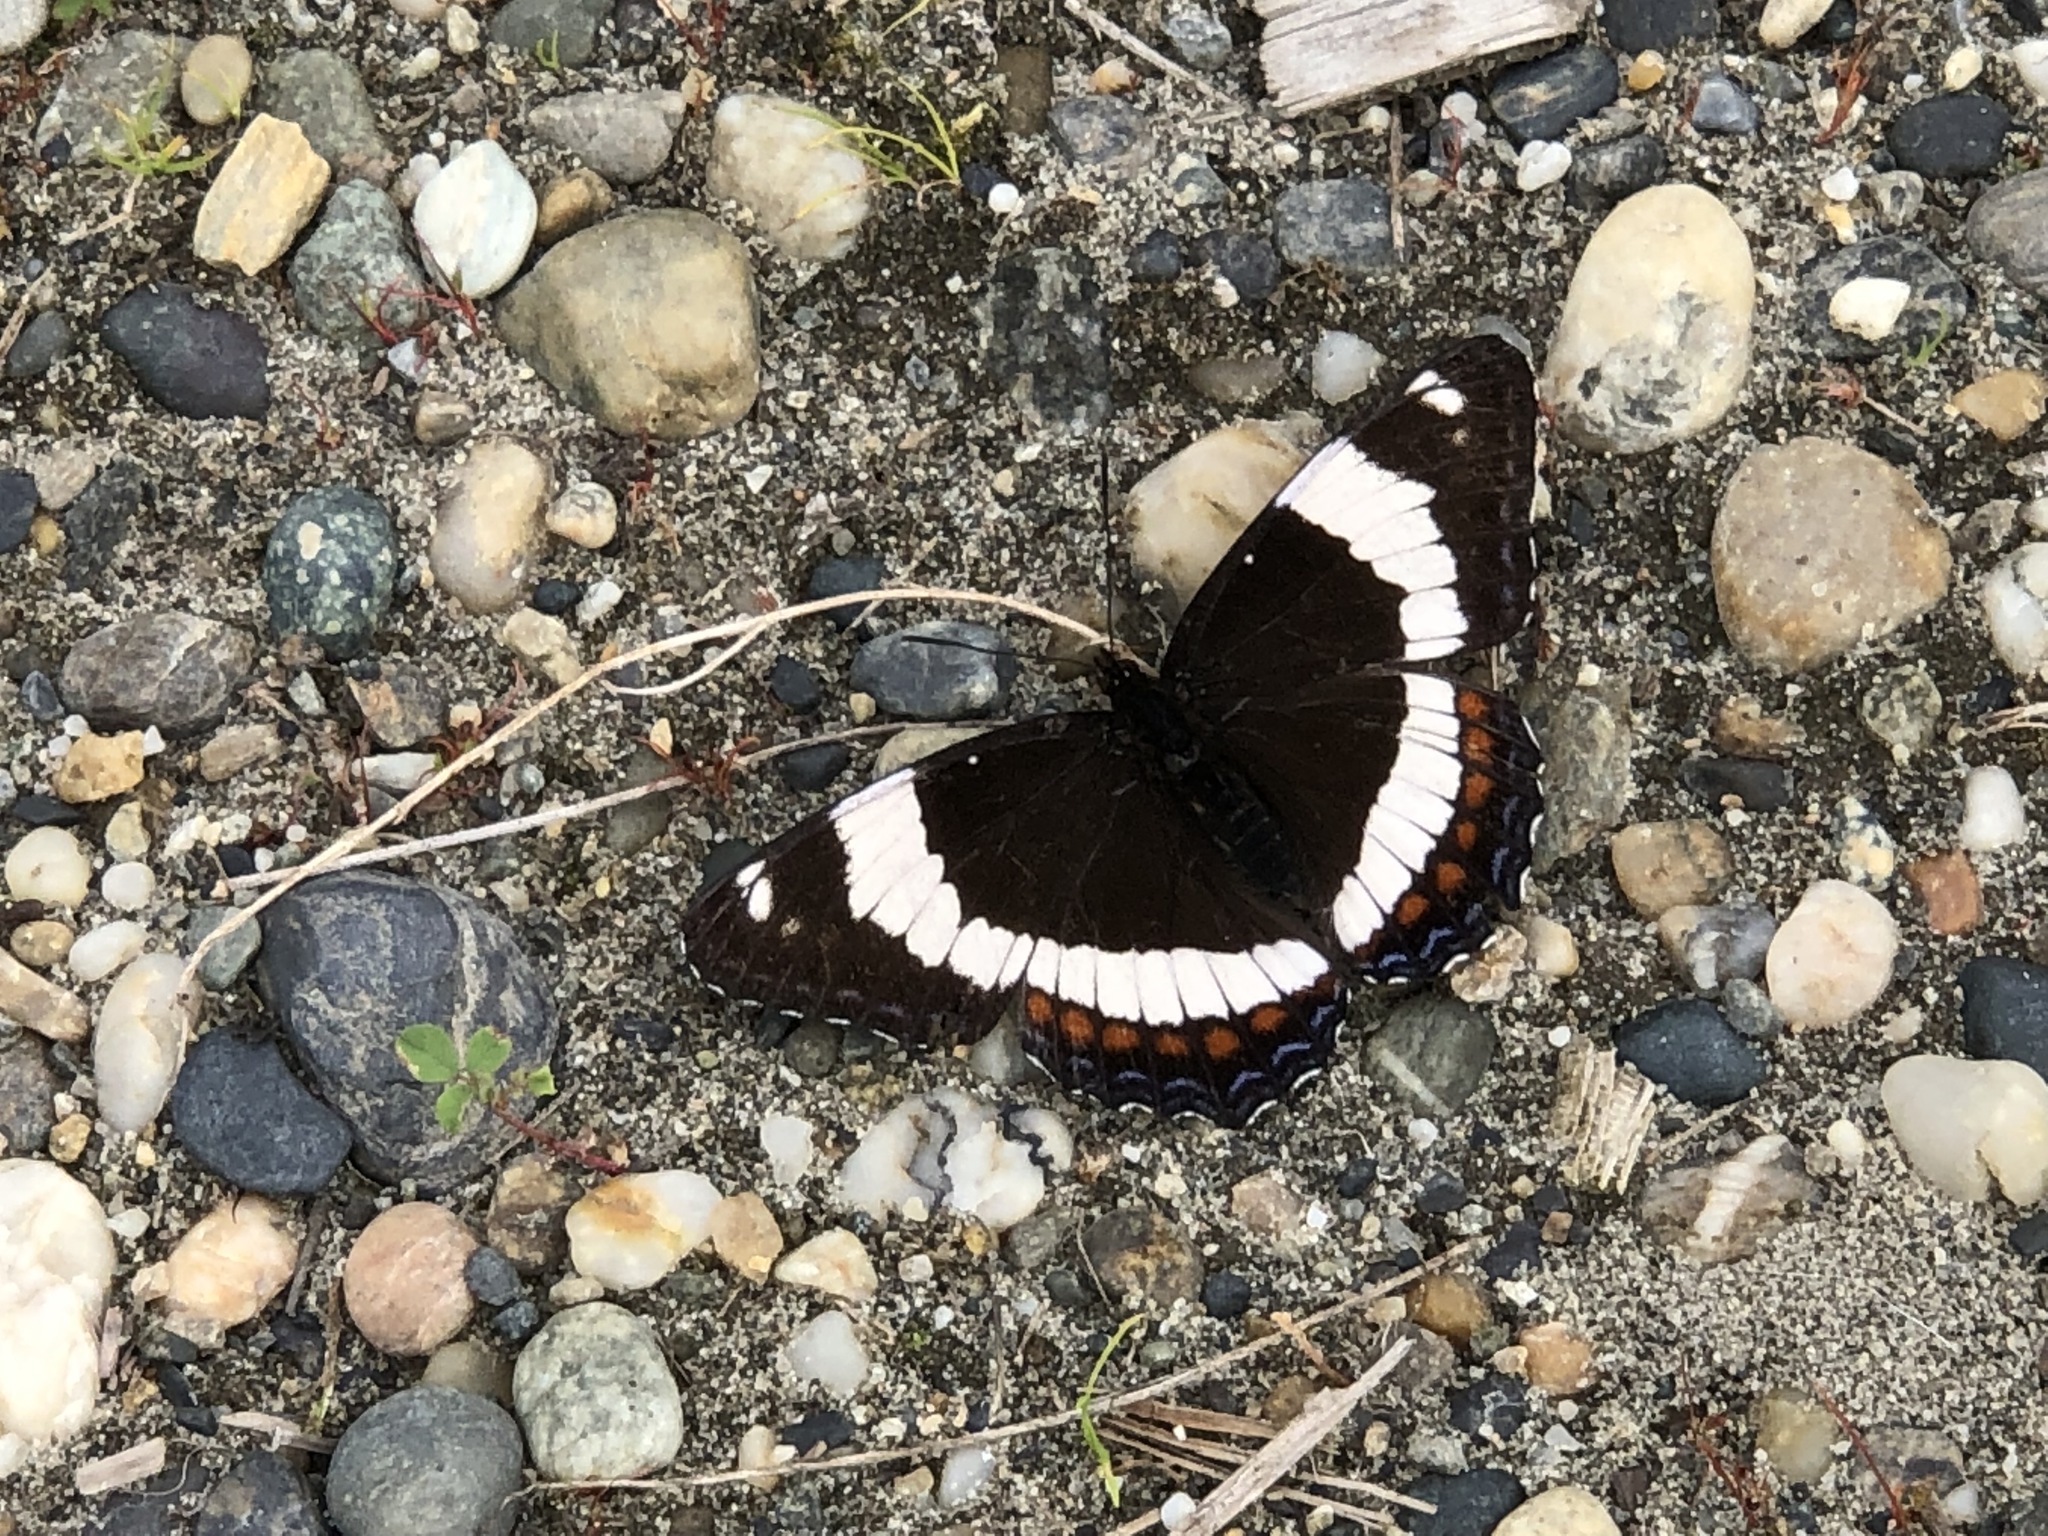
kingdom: Animalia
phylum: Arthropoda
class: Insecta
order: Lepidoptera
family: Nymphalidae
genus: Limenitis
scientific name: Limenitis arthemis
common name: Red-spotted admiral
